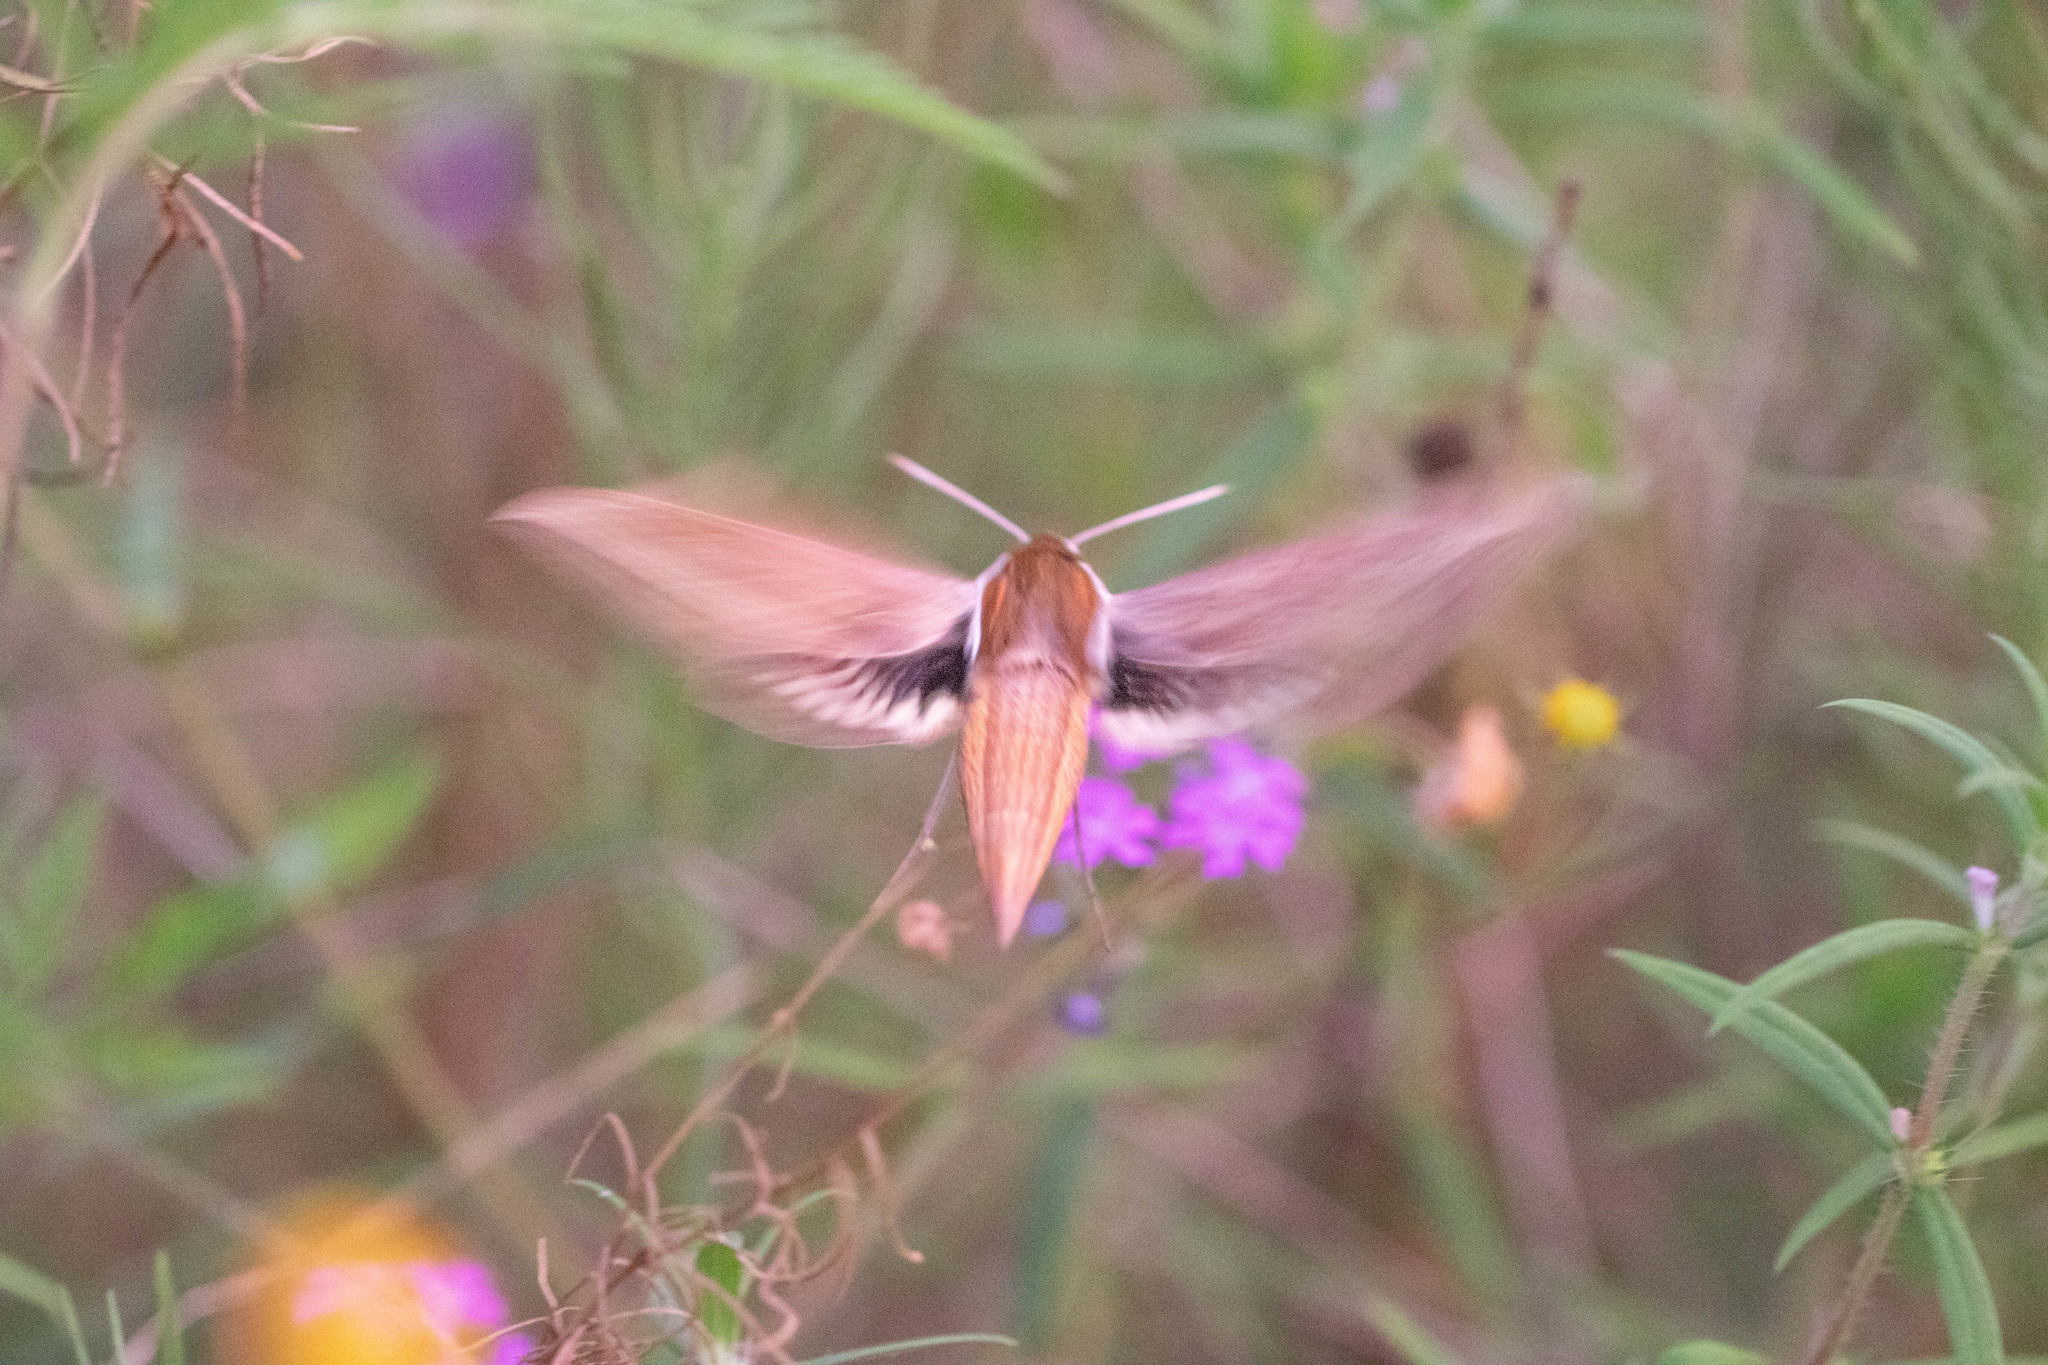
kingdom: Animalia
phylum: Arthropoda
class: Insecta
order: Lepidoptera
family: Sphingidae
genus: Xylophanes
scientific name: Xylophanes tersa
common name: Tersa sphinx
